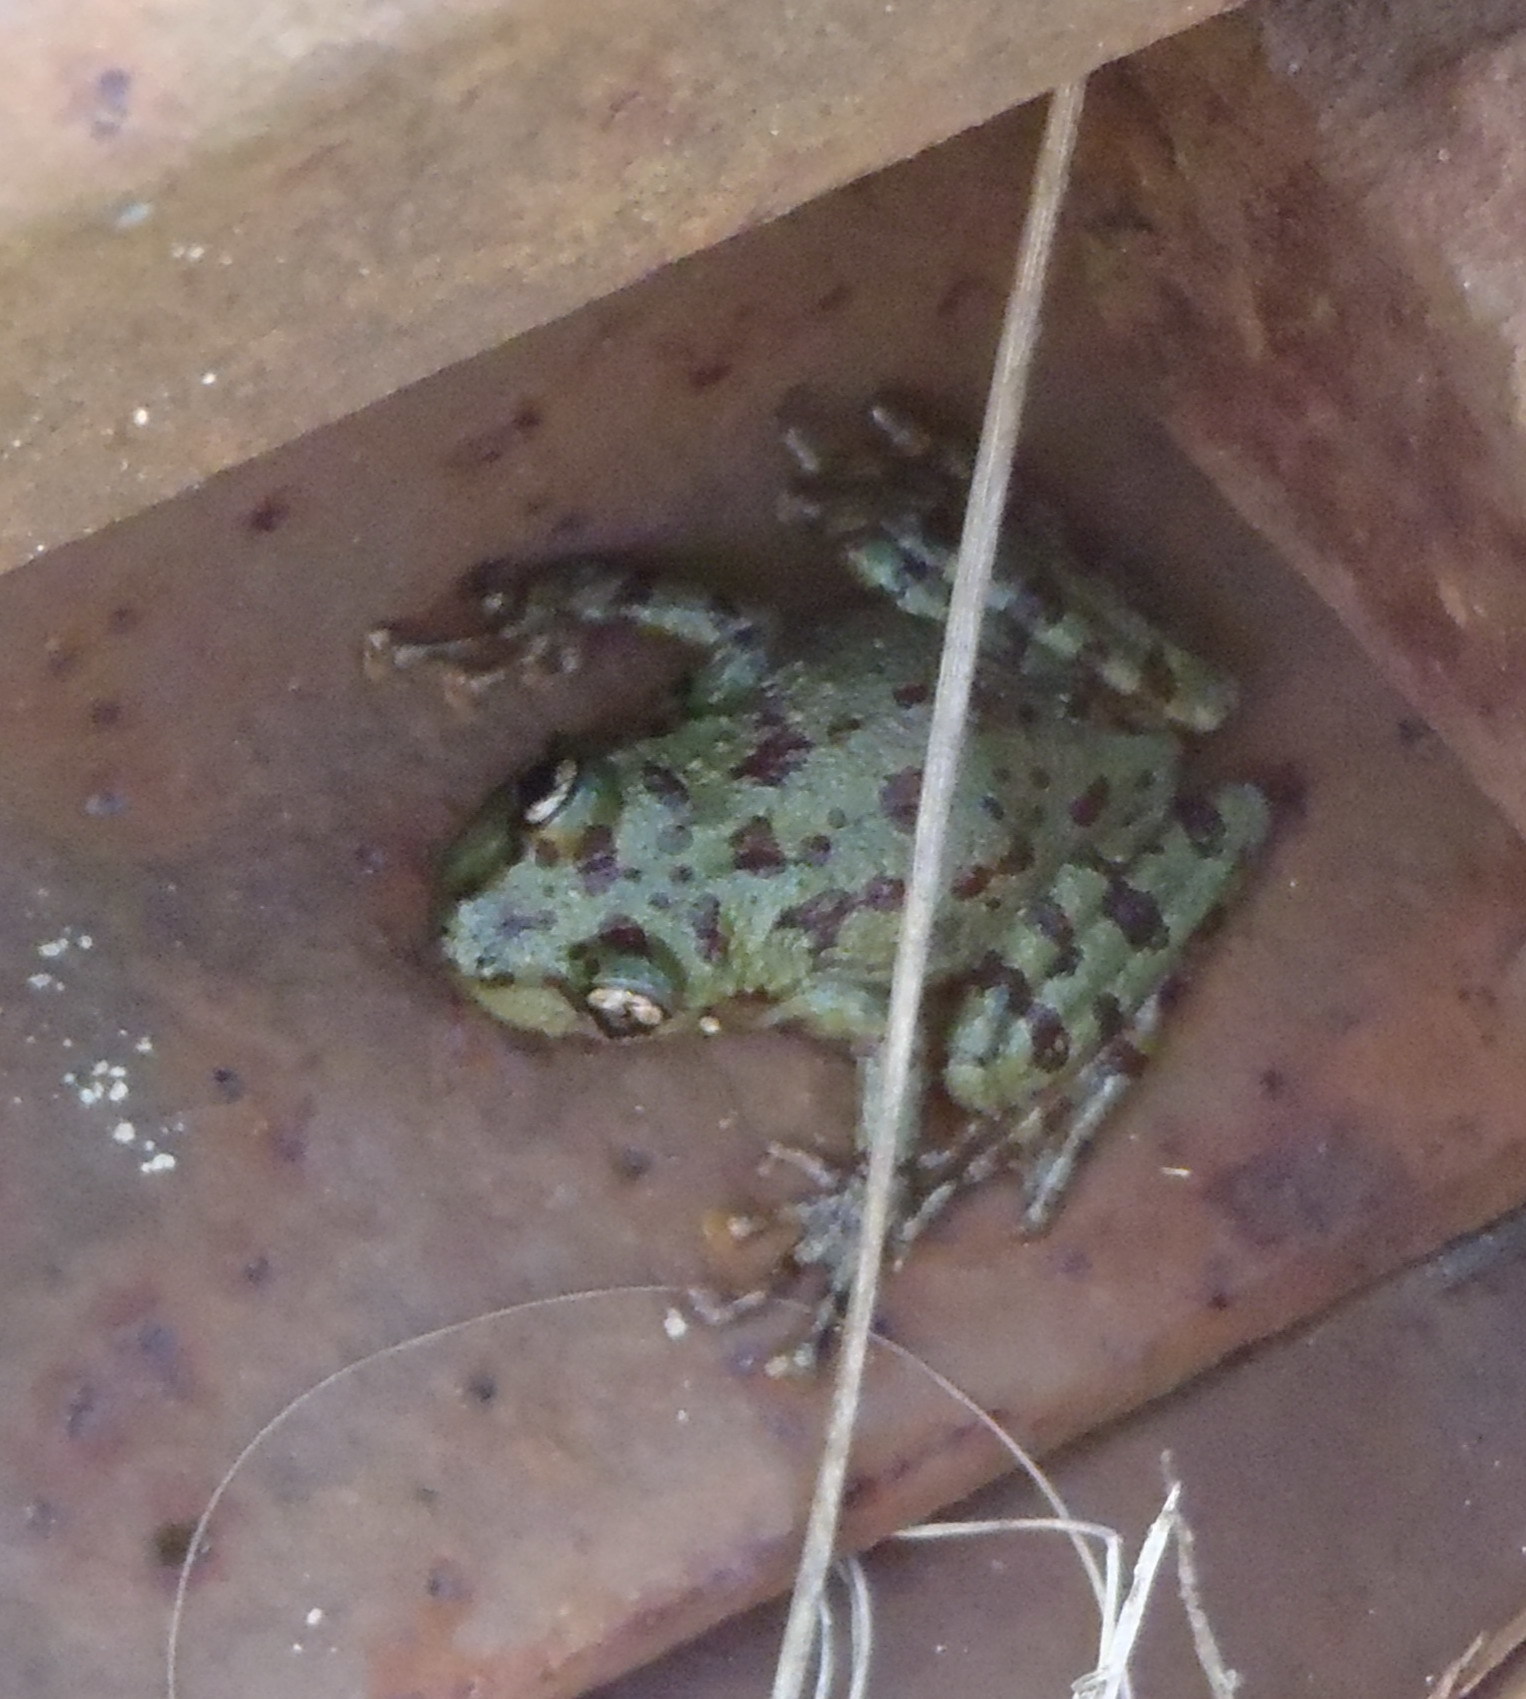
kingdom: Animalia
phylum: Chordata
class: Amphibia
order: Anura
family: Heleophrynidae
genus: Heleophryne
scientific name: Heleophryne regis
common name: Royal ghost frog
